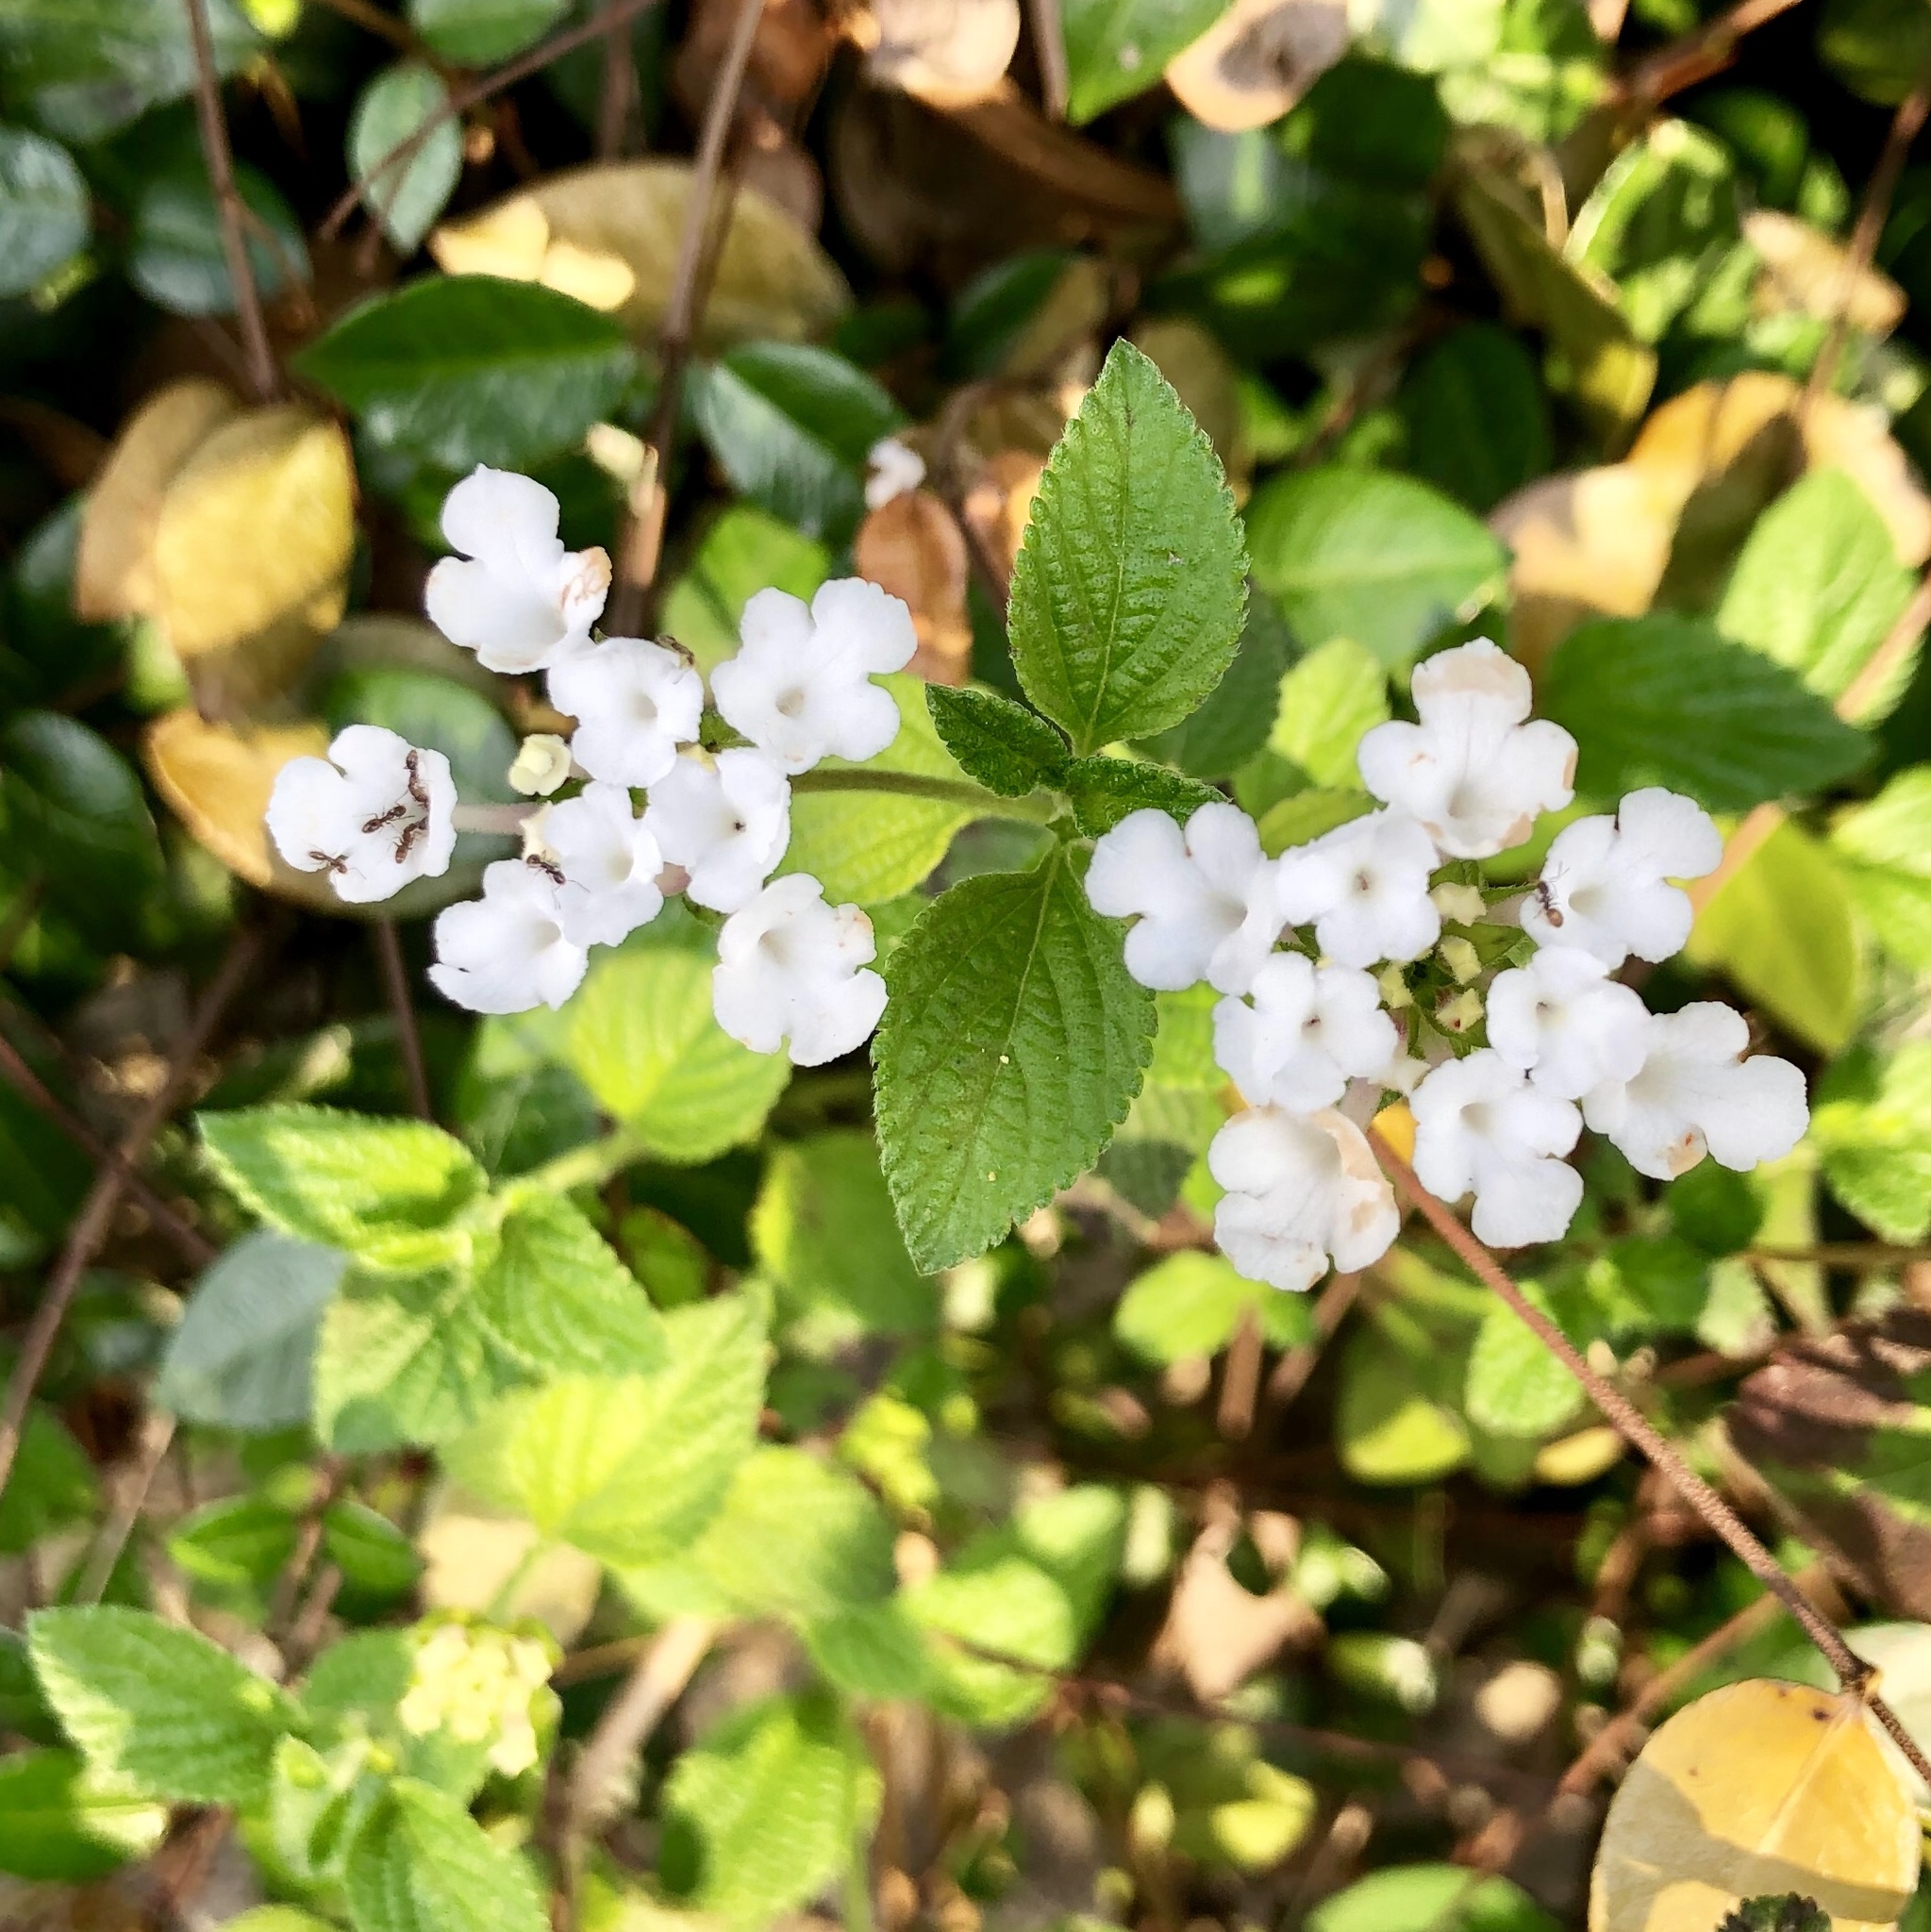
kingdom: Plantae
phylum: Tracheophyta
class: Magnoliopsida
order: Lamiales
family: Verbenaceae
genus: Lantana
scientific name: Lantana montevidensis
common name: Trailing shrubverbena
